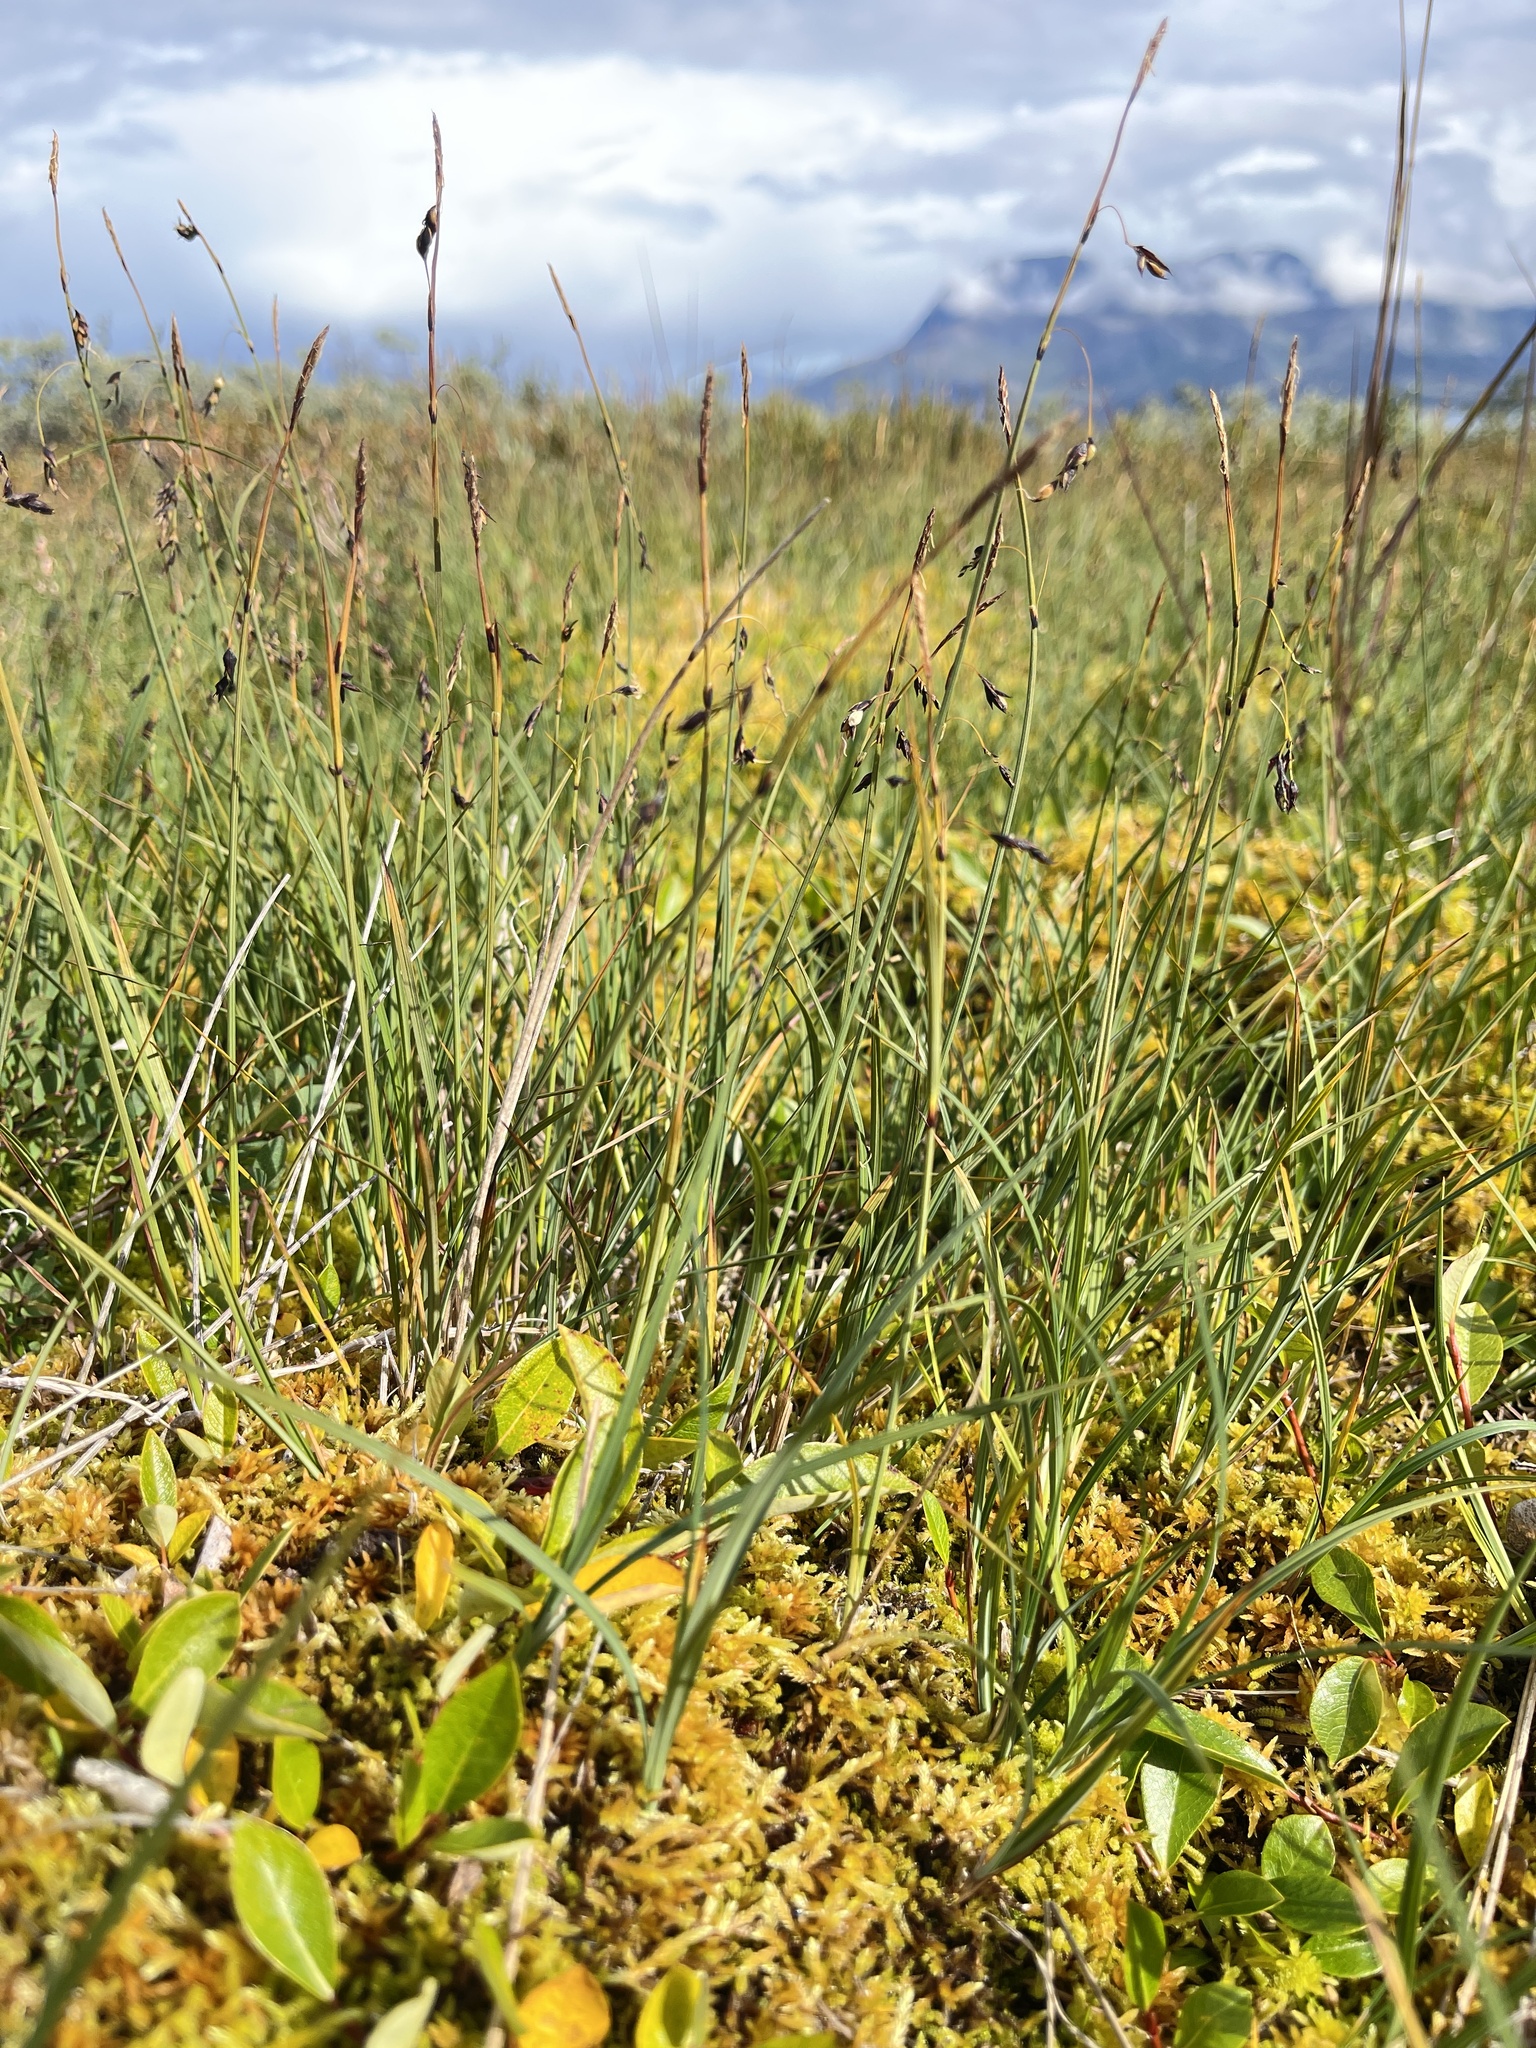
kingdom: Plantae
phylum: Tracheophyta
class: Liliopsida
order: Poales
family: Cyperaceae
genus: Carex
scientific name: Carex rariflora
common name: Loose-flowered alpine sedge
